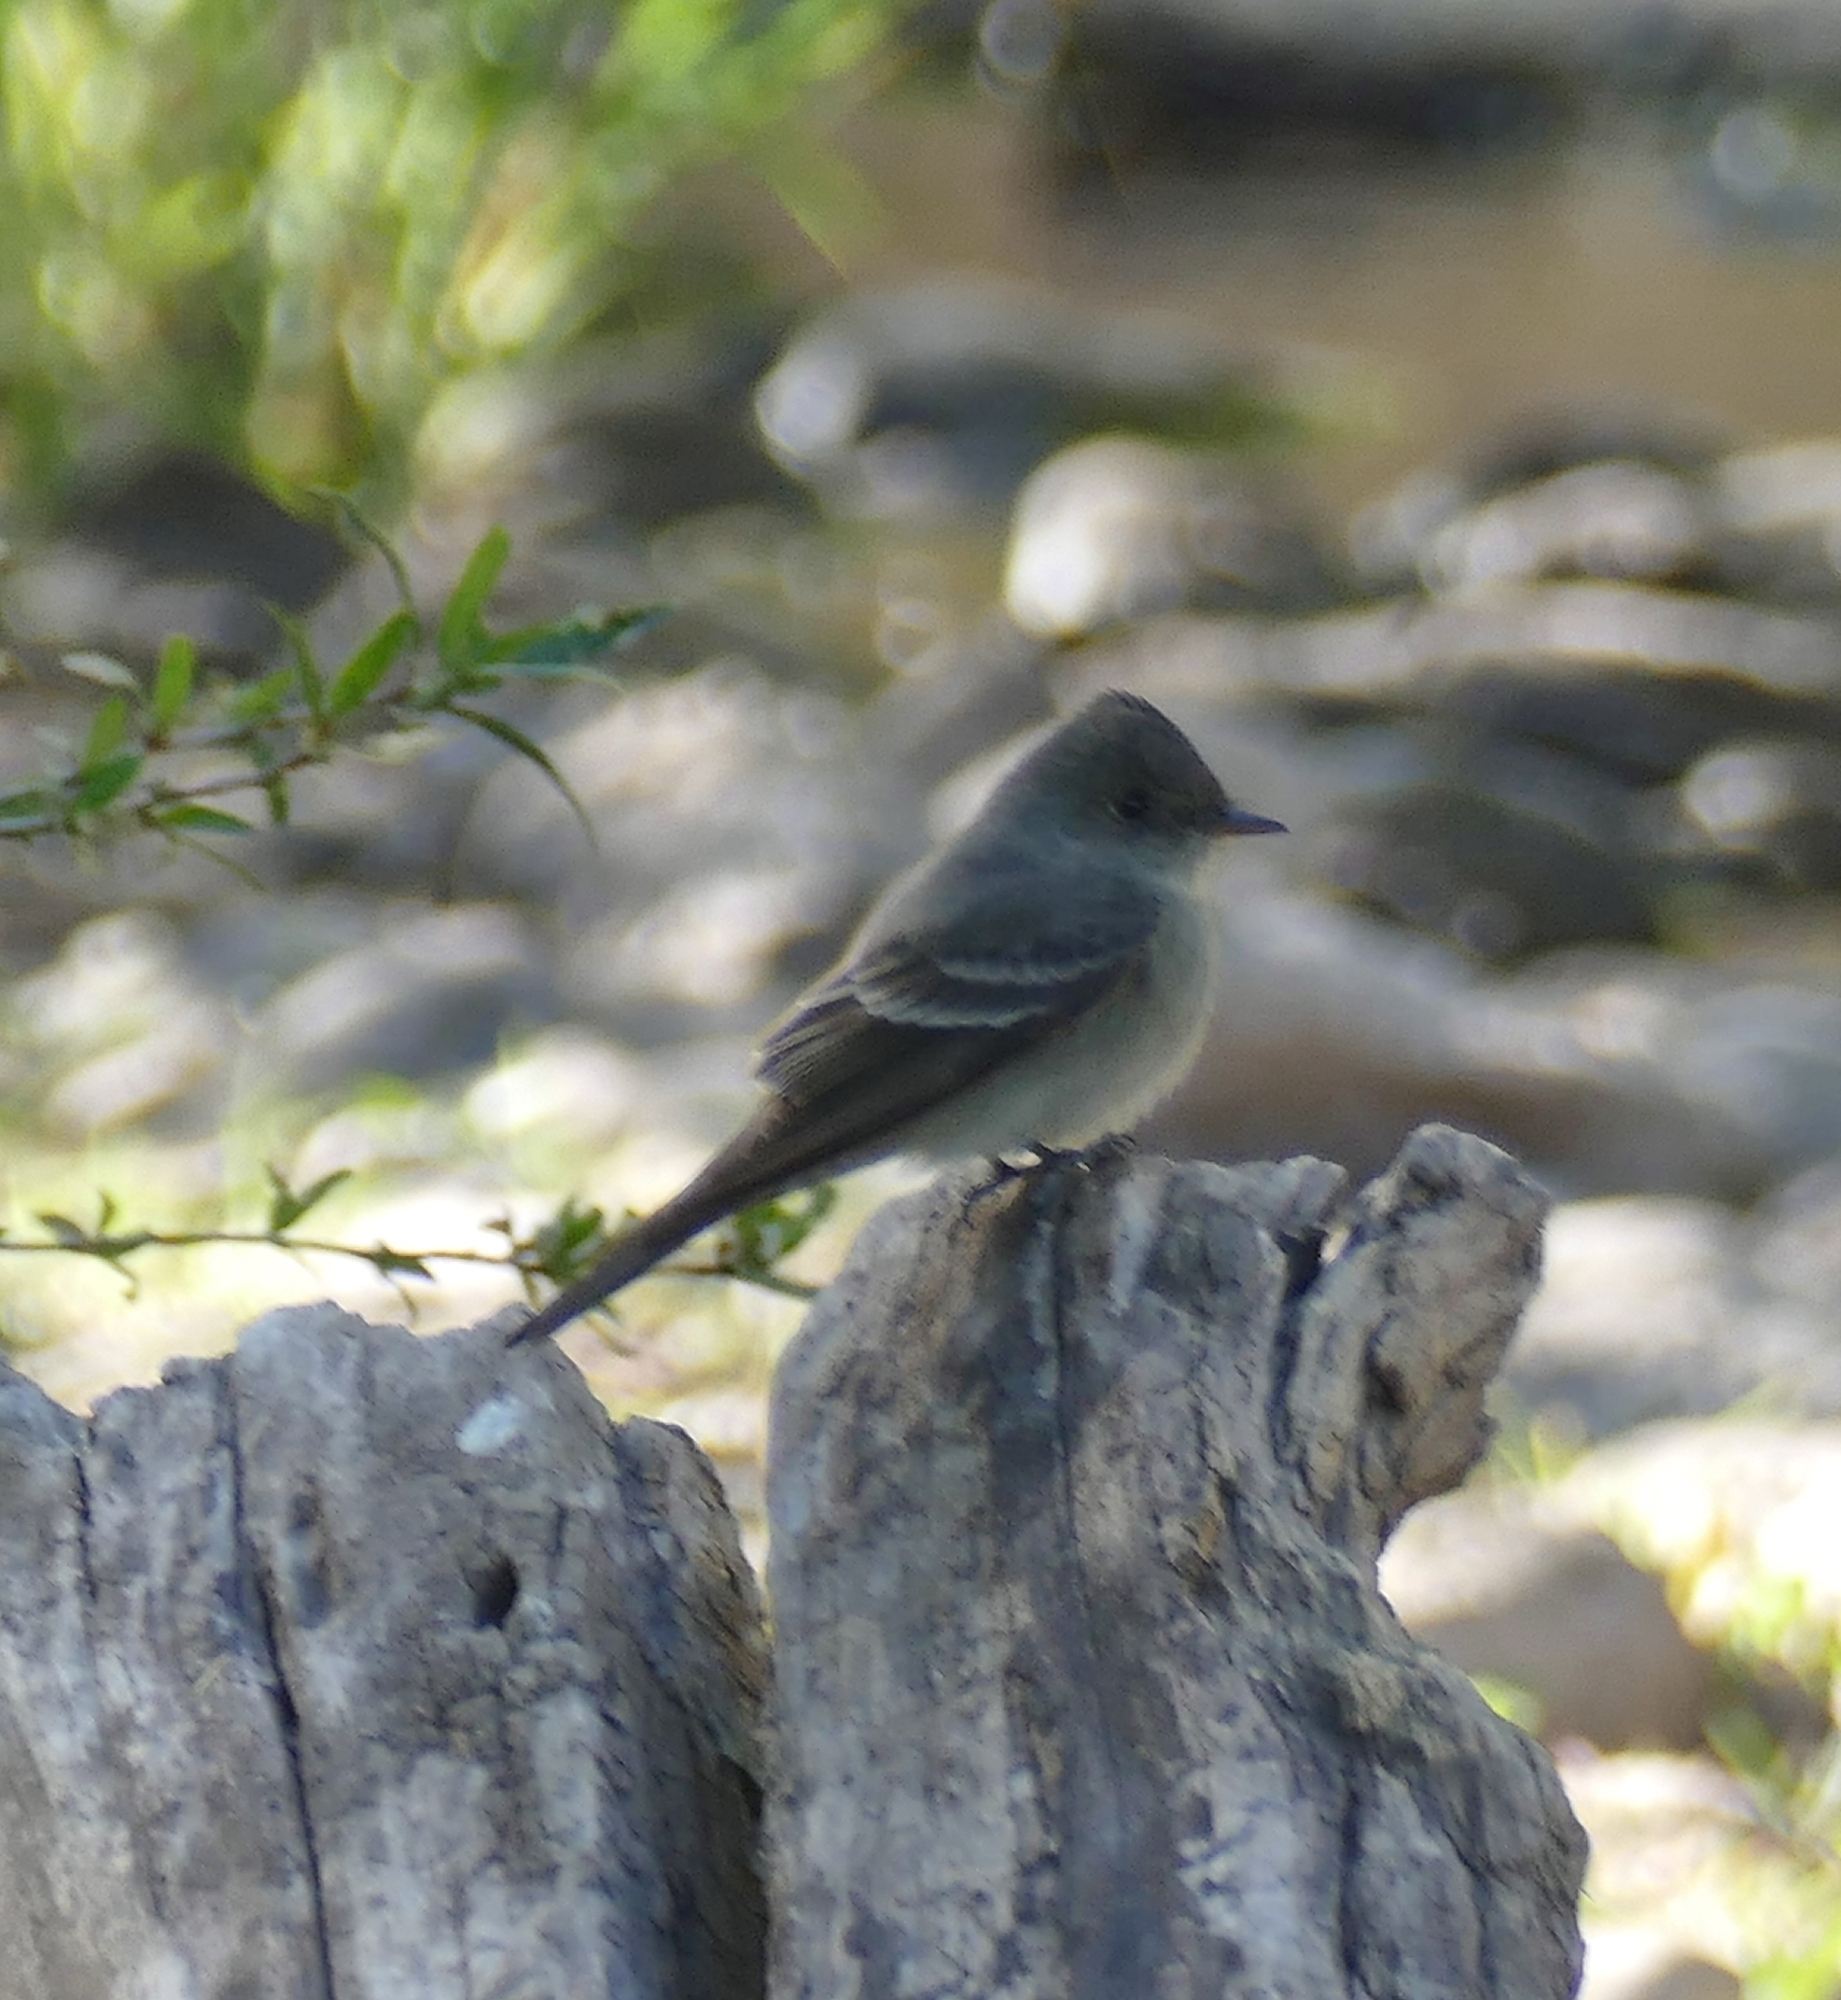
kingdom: Animalia
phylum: Chordata
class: Aves
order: Passeriformes
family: Tyrannidae
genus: Contopus
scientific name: Contopus sordidulus
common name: Western wood-pewee
